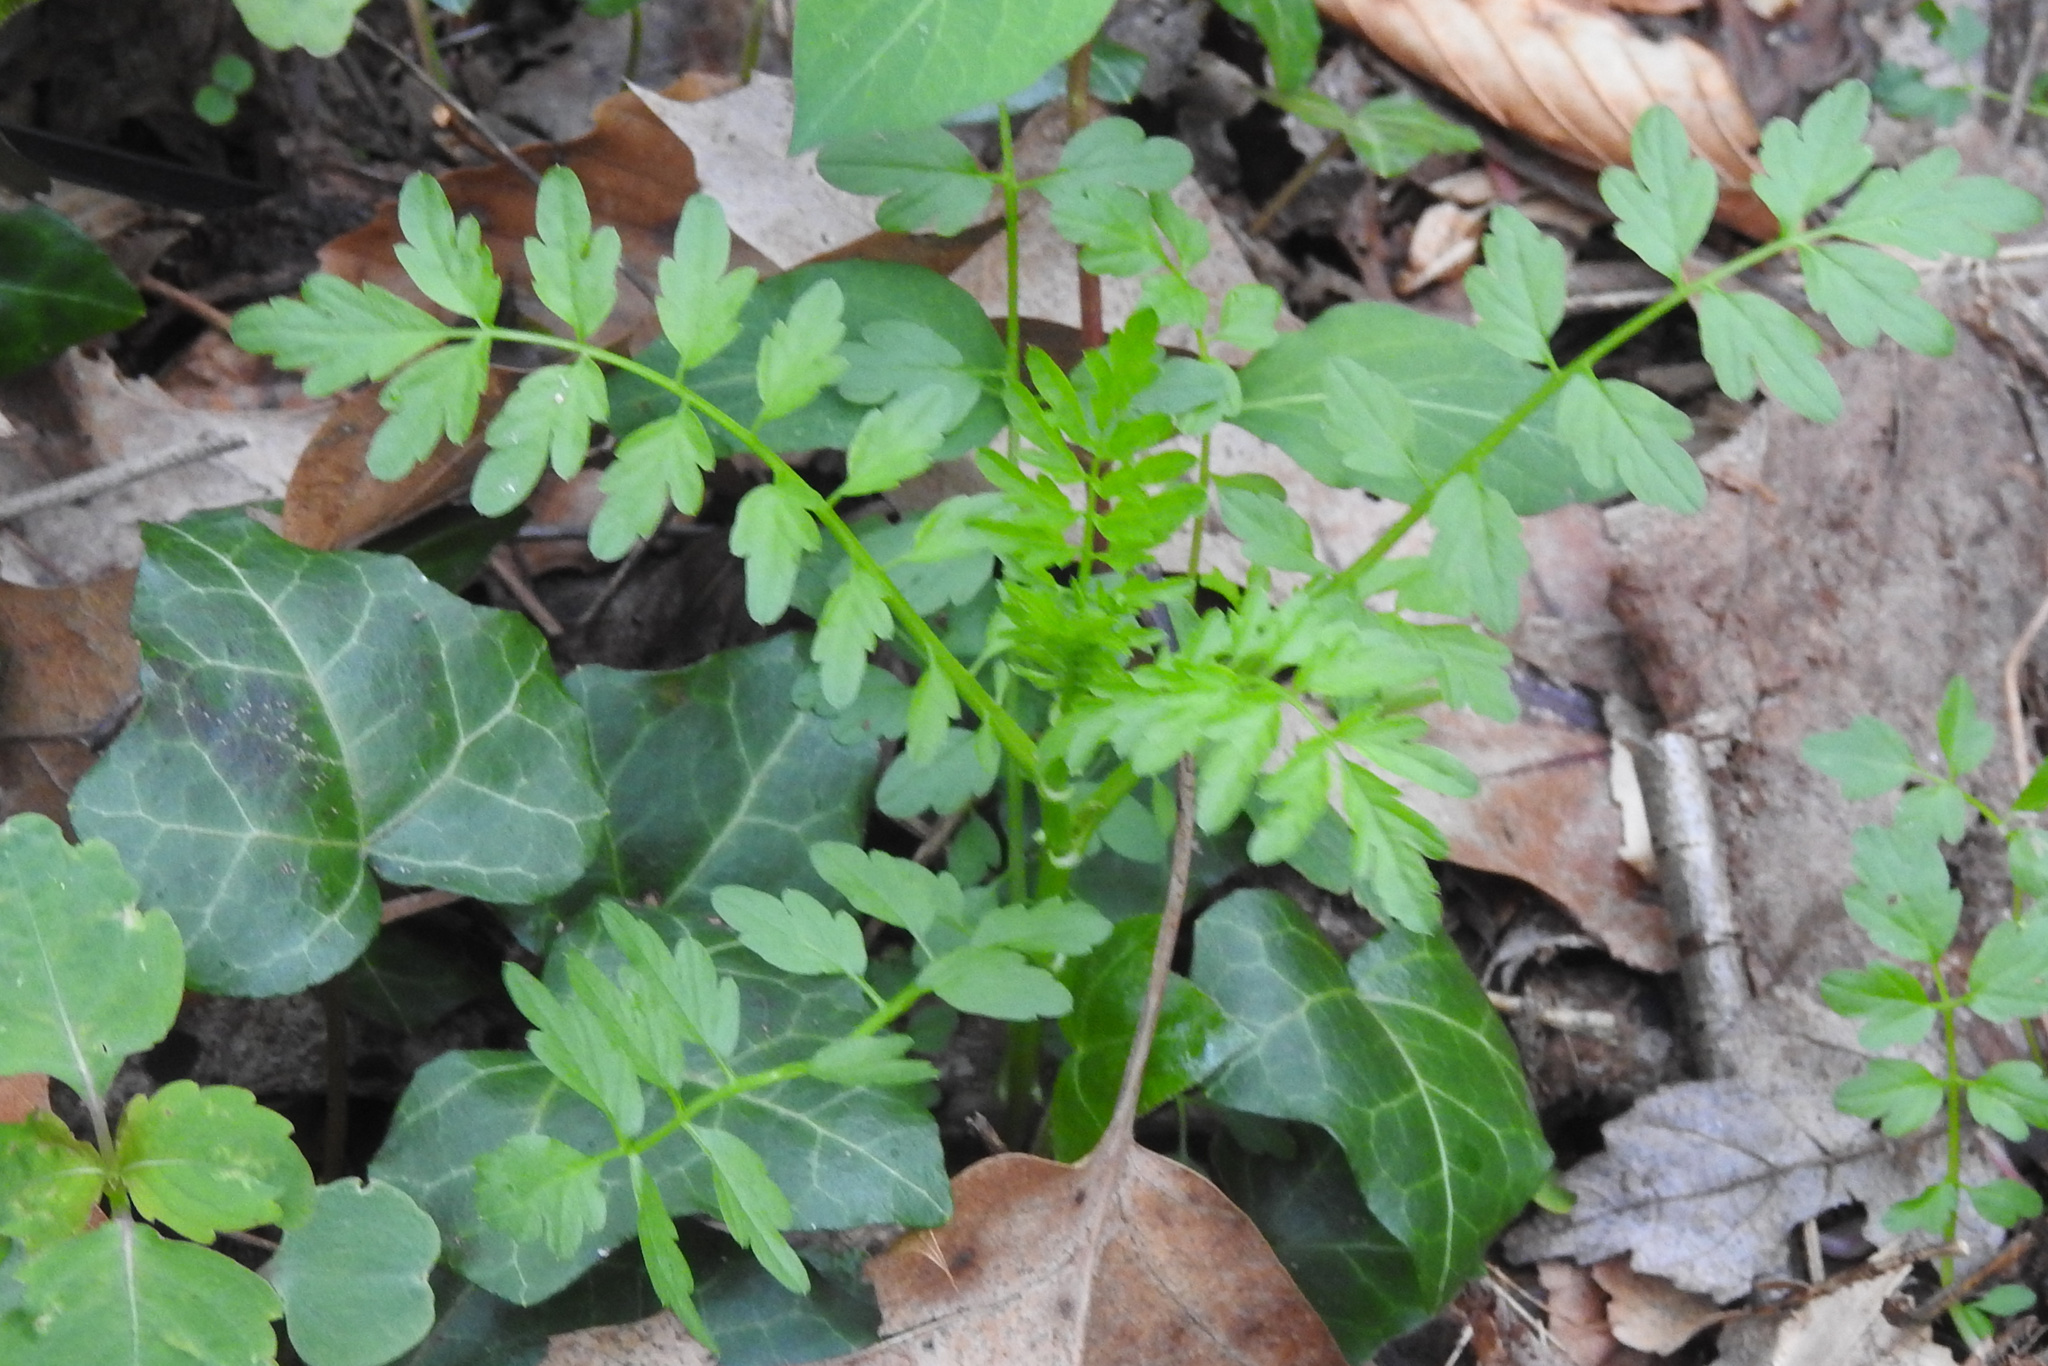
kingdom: Plantae
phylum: Tracheophyta
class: Magnoliopsida
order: Brassicales
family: Brassicaceae
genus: Cardamine
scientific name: Cardamine impatiens
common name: Narrow-leaved bitter-cress
